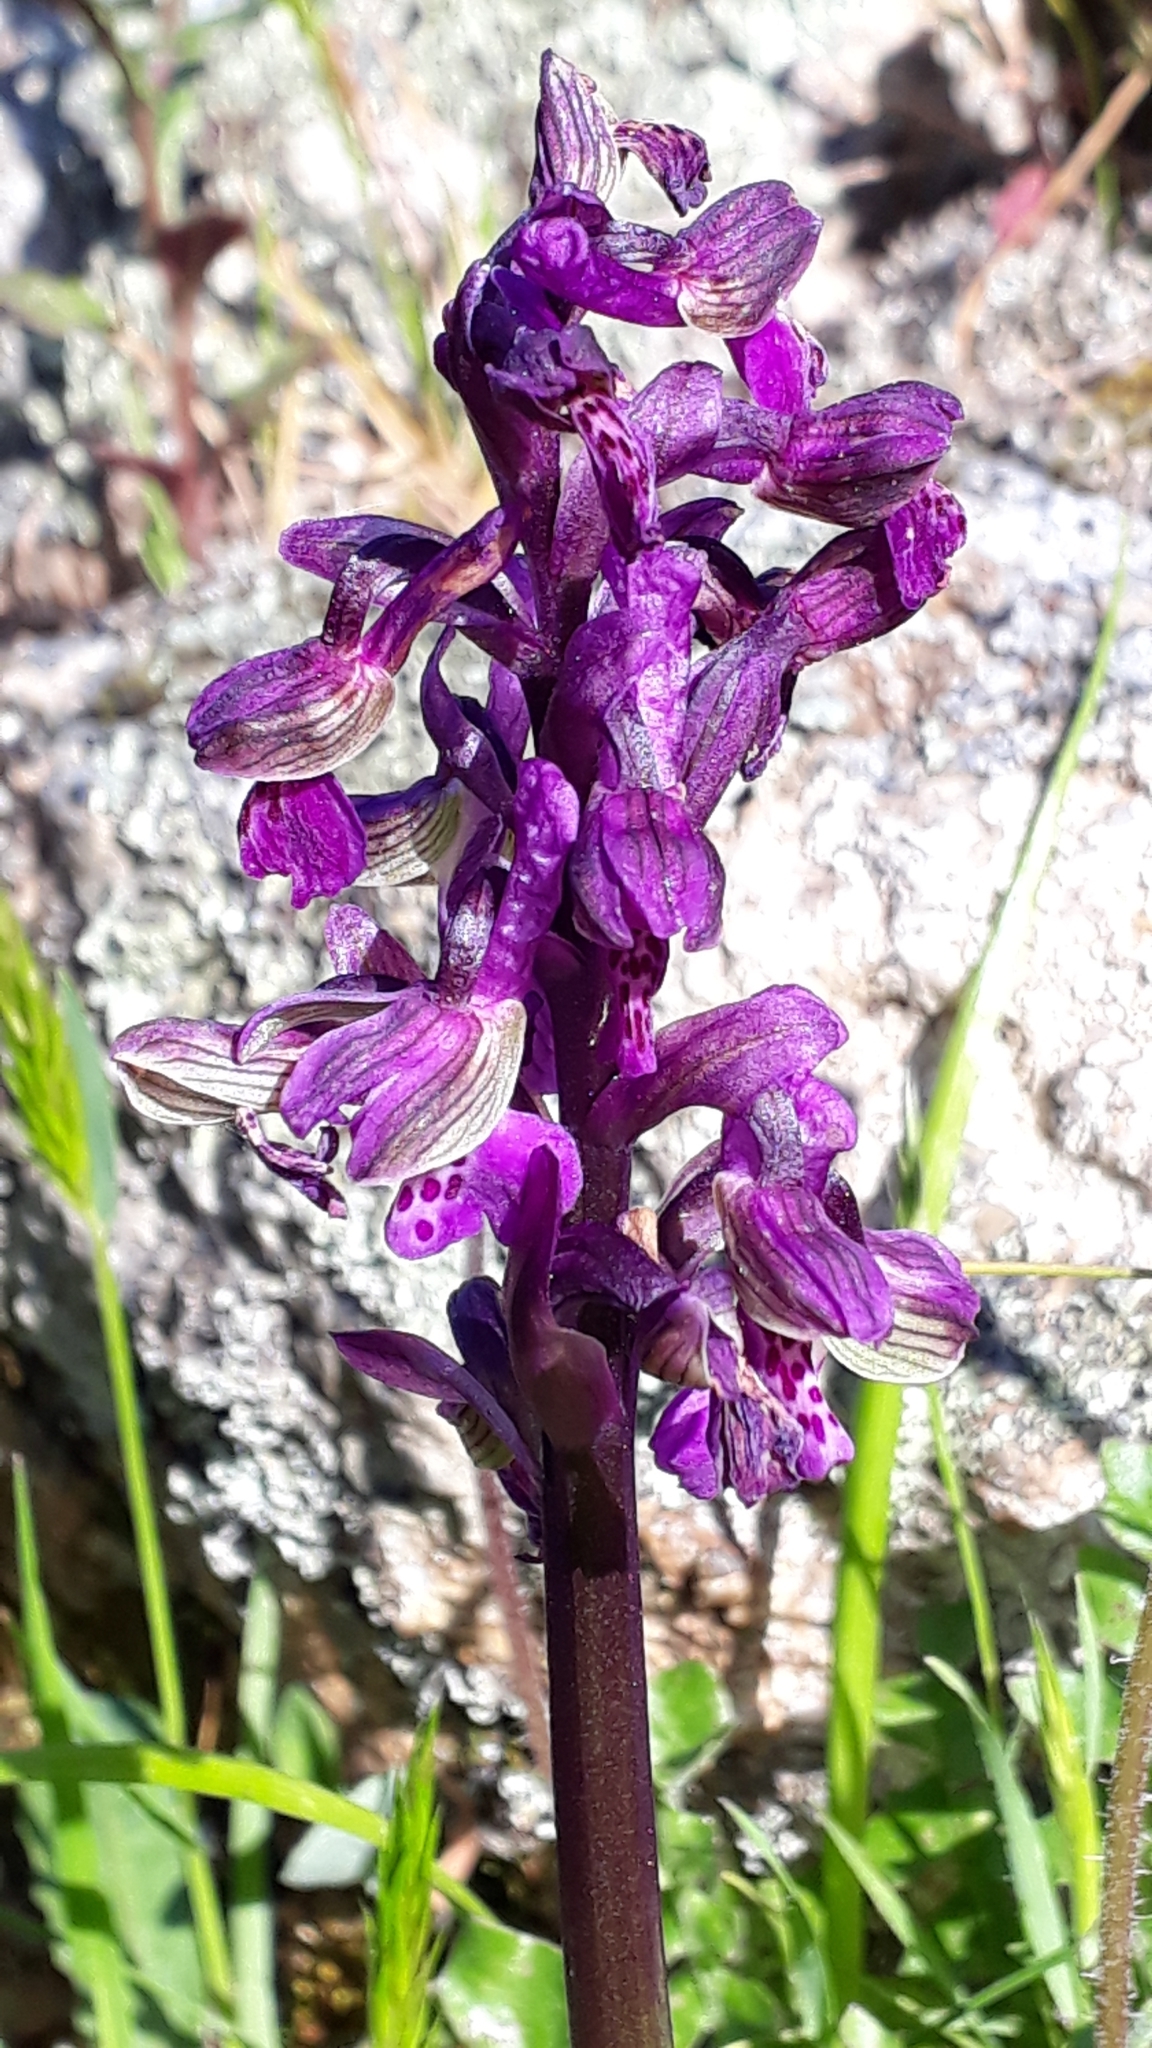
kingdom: Plantae
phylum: Tracheophyta
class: Liliopsida
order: Asparagales
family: Orchidaceae
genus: Anacamptis
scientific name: Anacamptis morio
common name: Green-winged orchid
